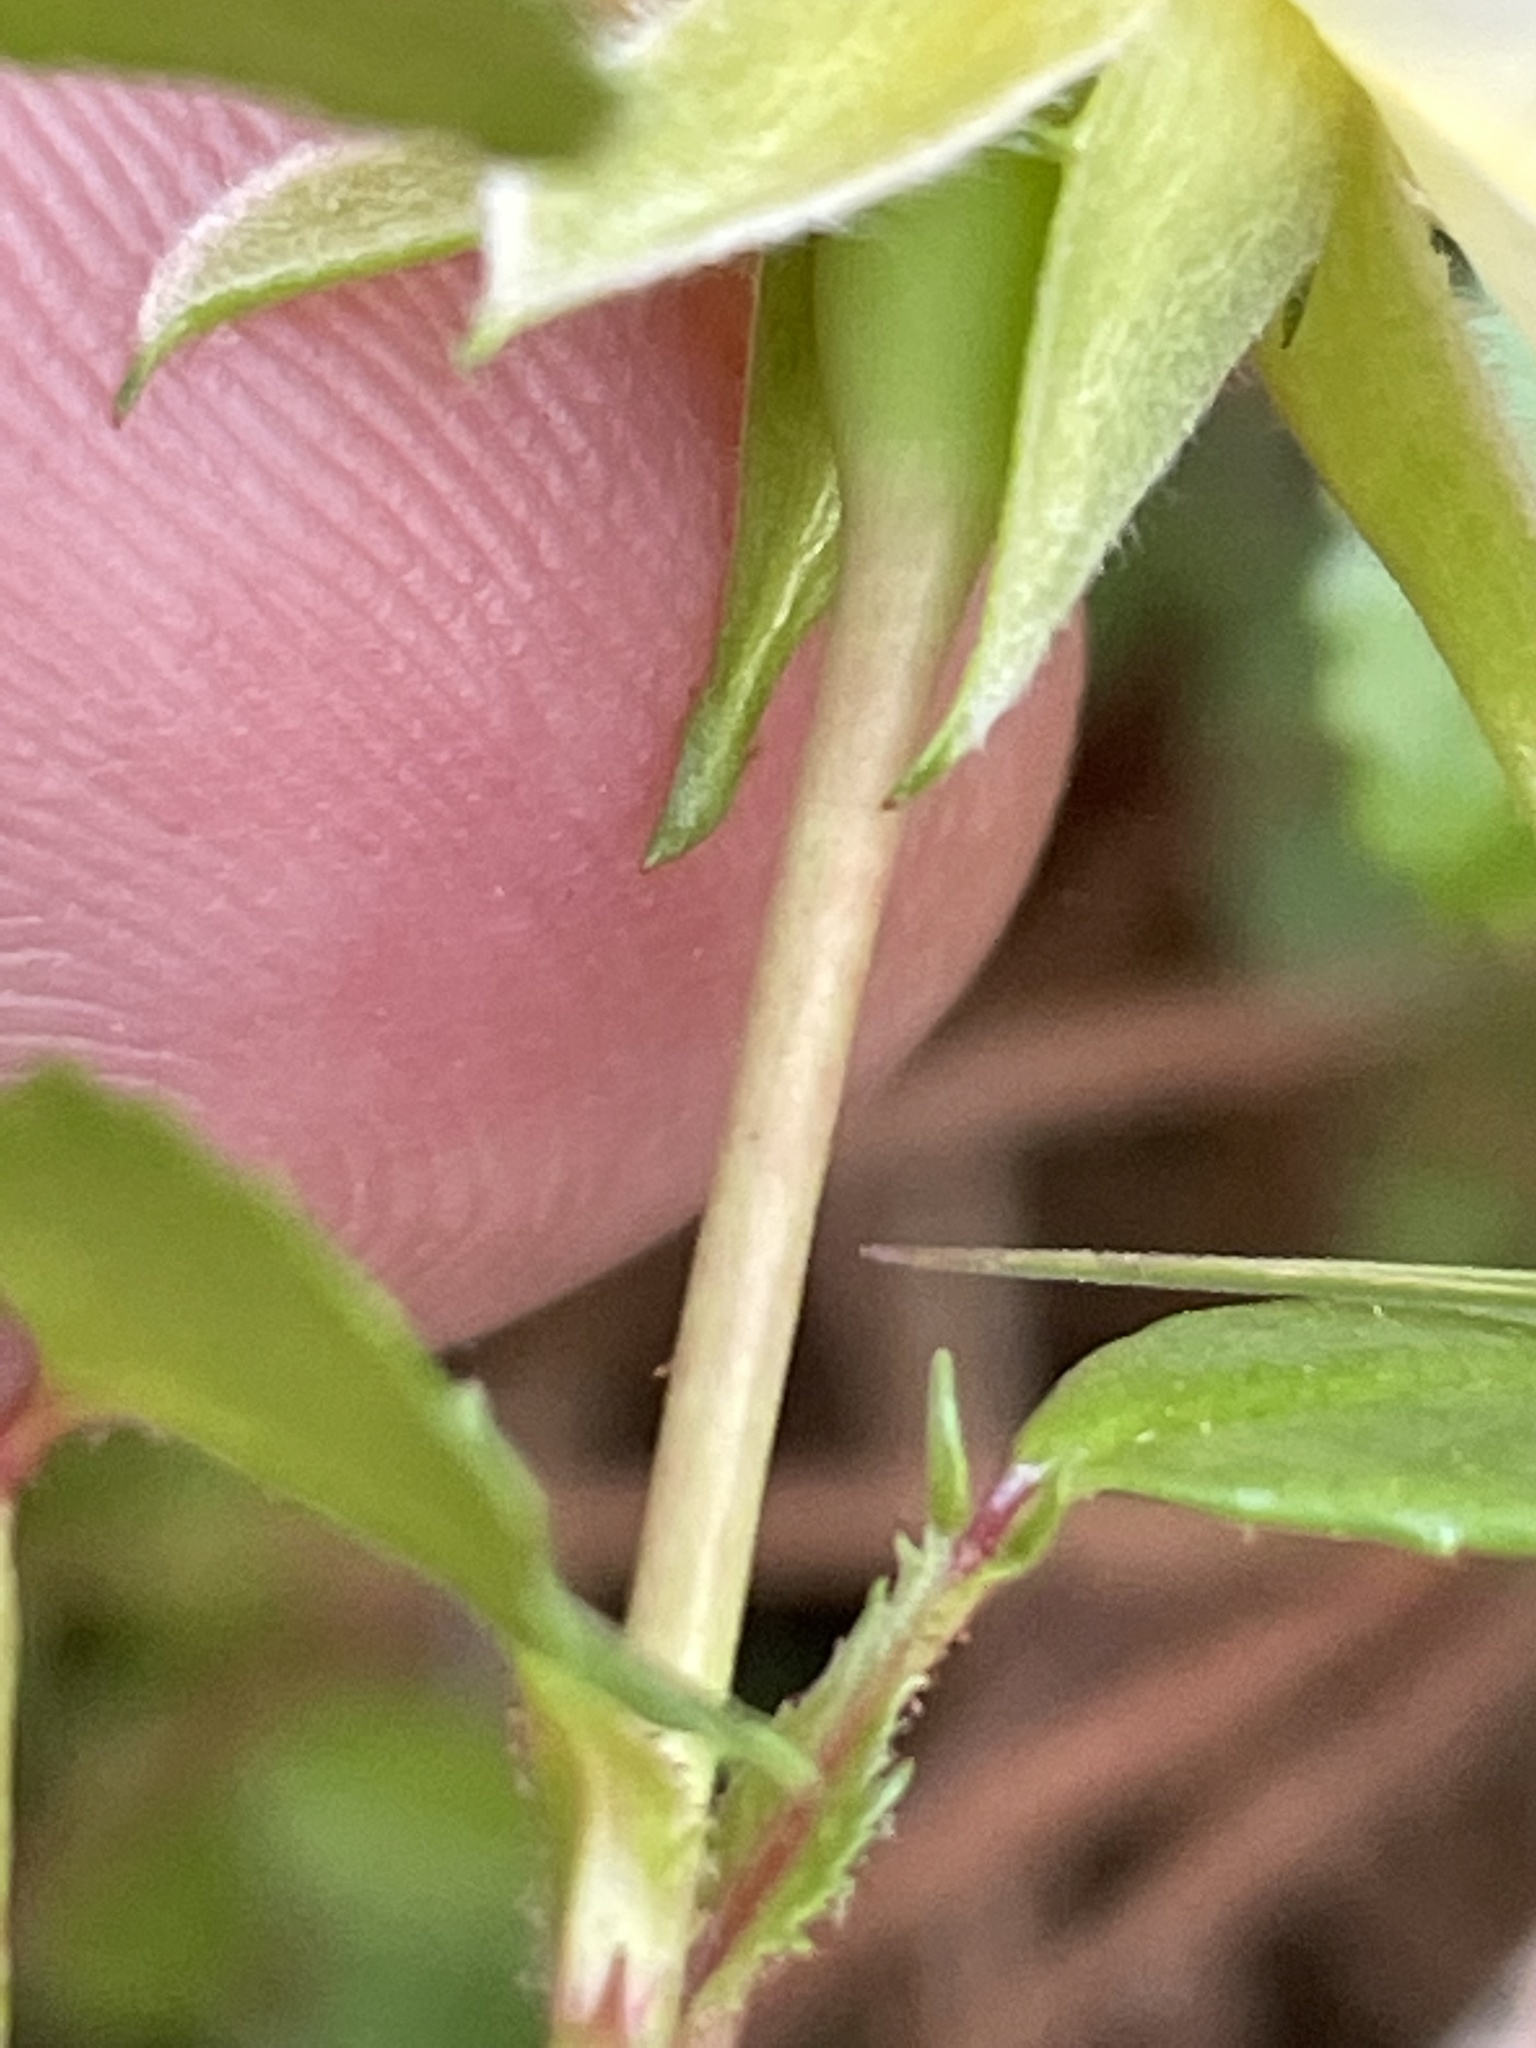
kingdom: Plantae
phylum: Tracheophyta
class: Magnoliopsida
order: Rosales
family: Rosaceae
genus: Rosa
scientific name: Rosa lucieae
